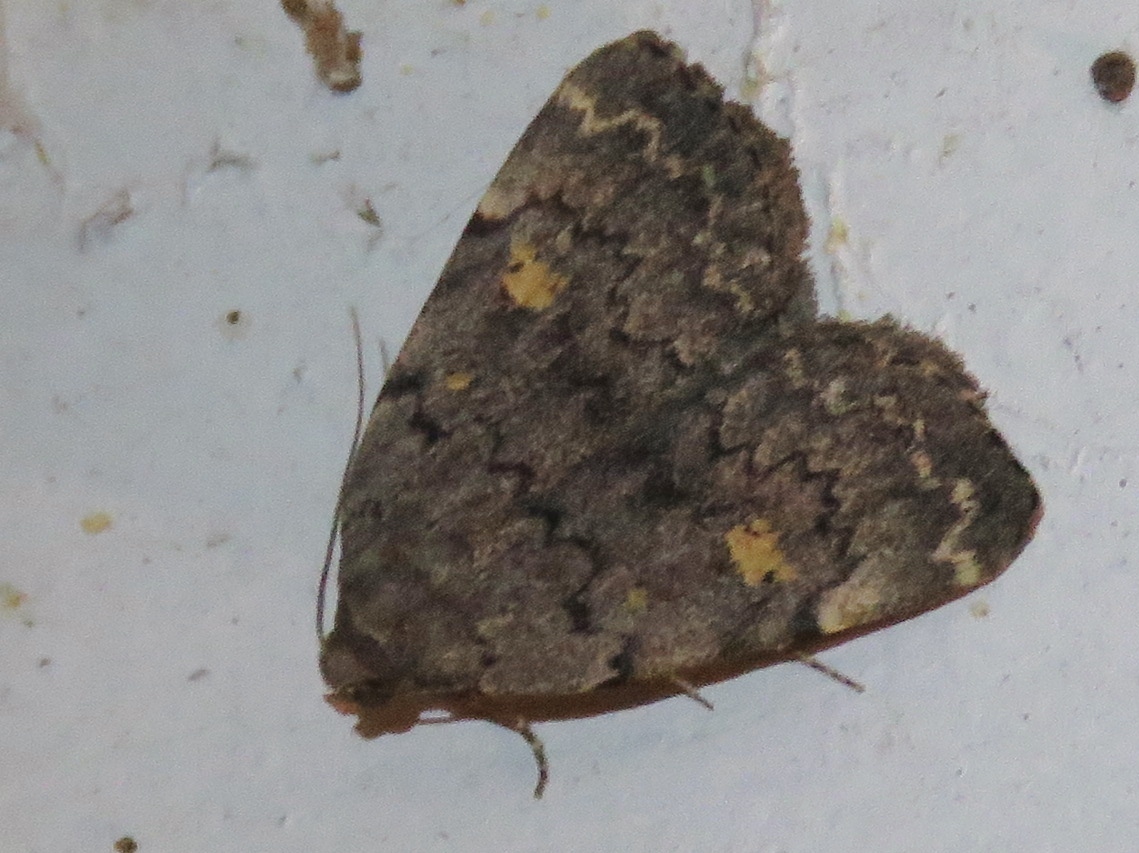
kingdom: Animalia
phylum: Arthropoda
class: Insecta
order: Lepidoptera
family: Erebidae
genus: Idia
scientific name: Idia aemula
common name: Common idia moth
